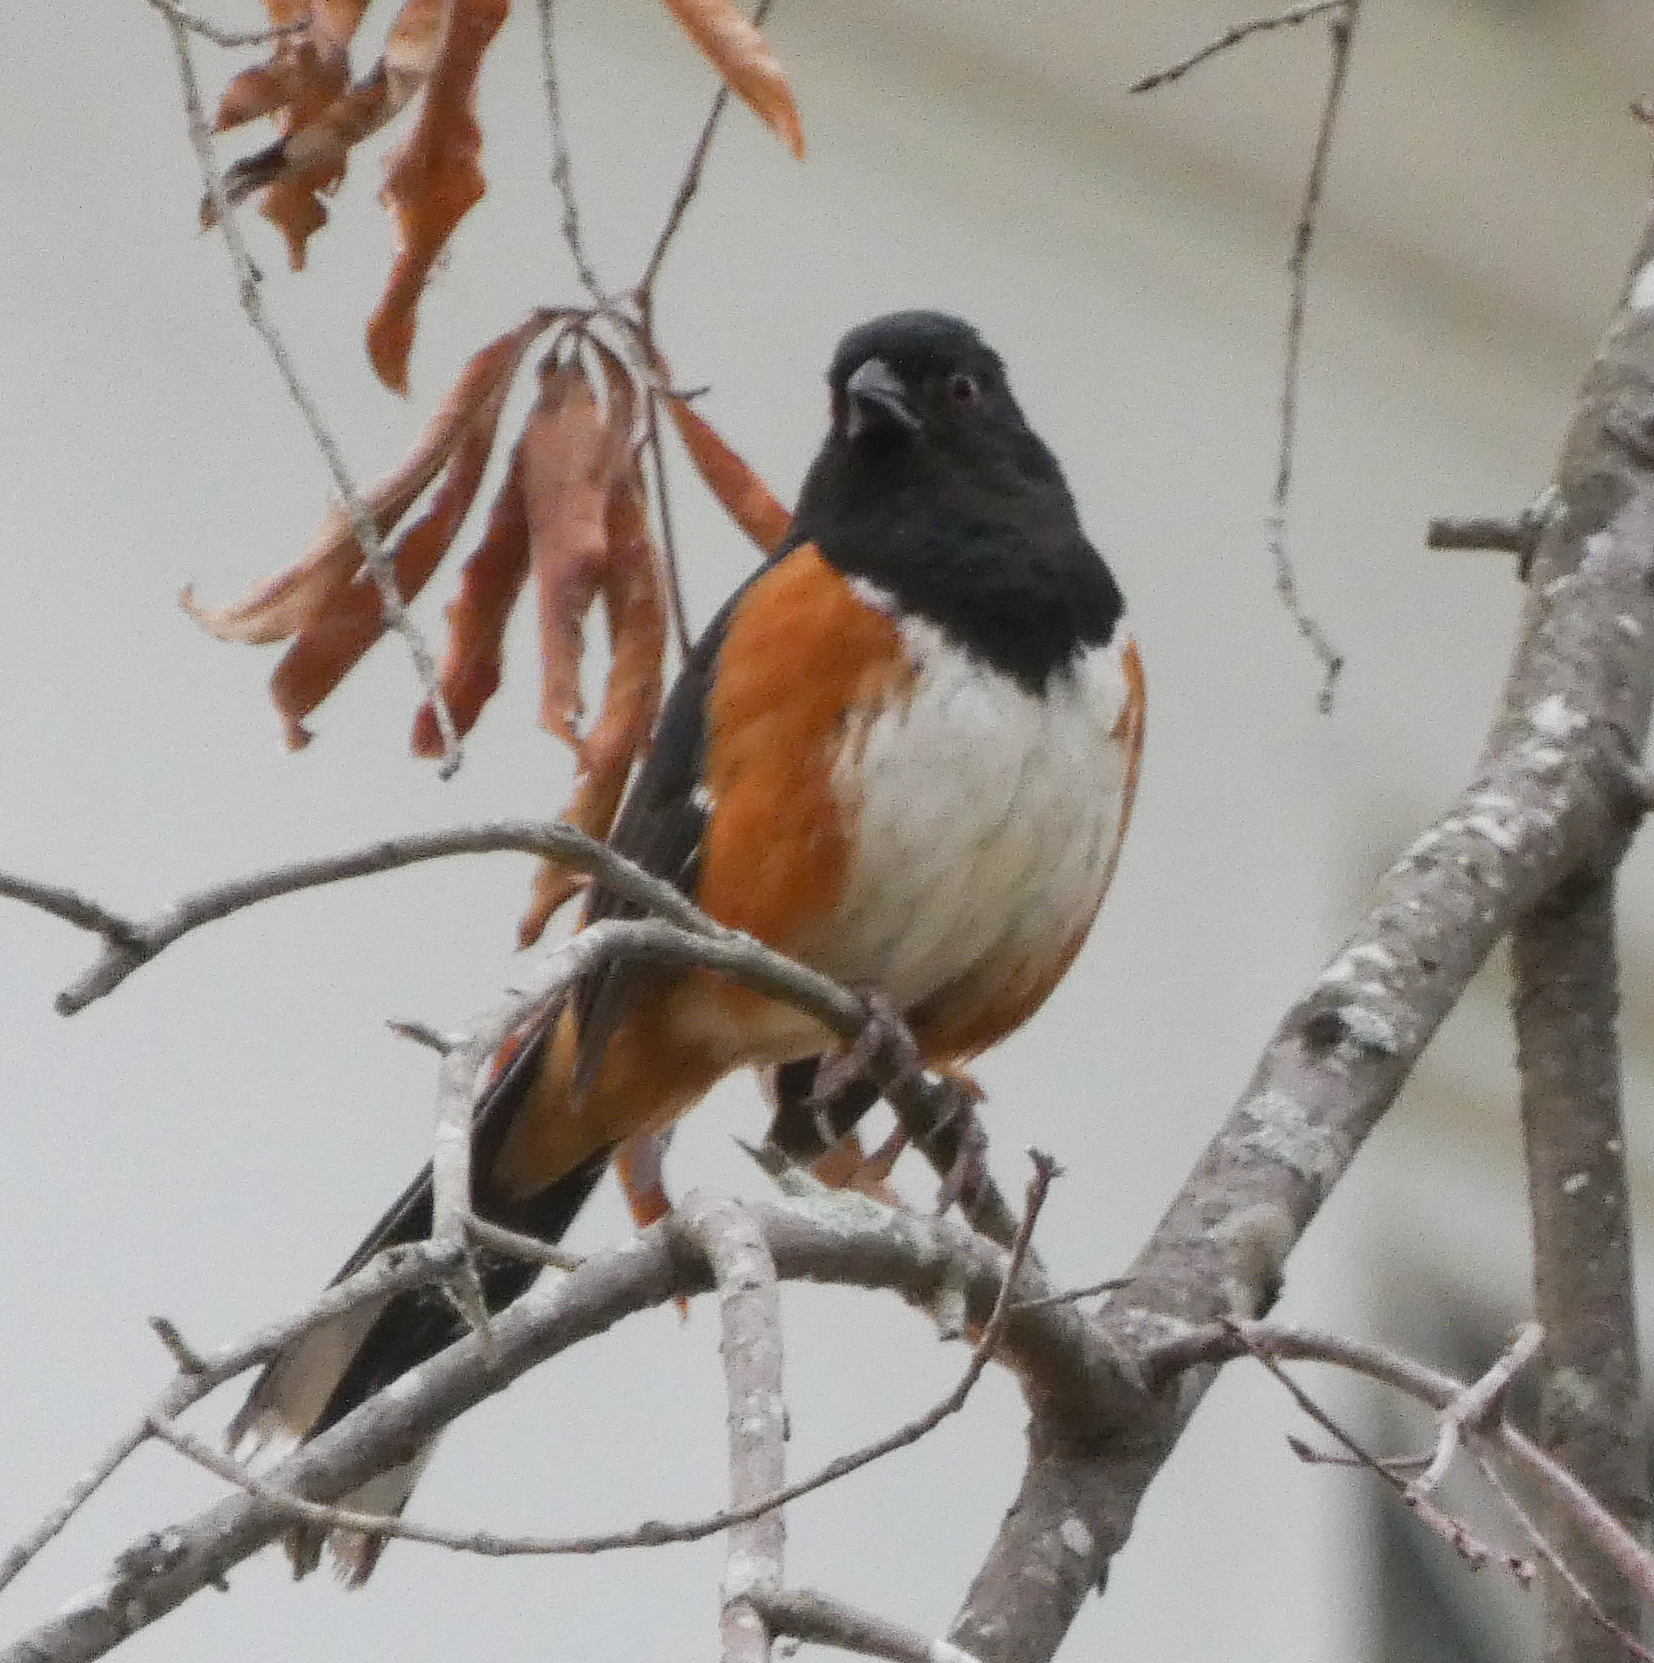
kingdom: Animalia
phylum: Chordata
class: Aves
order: Passeriformes
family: Passerellidae
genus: Pipilo
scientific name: Pipilo erythrophthalmus
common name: Eastern towhee
